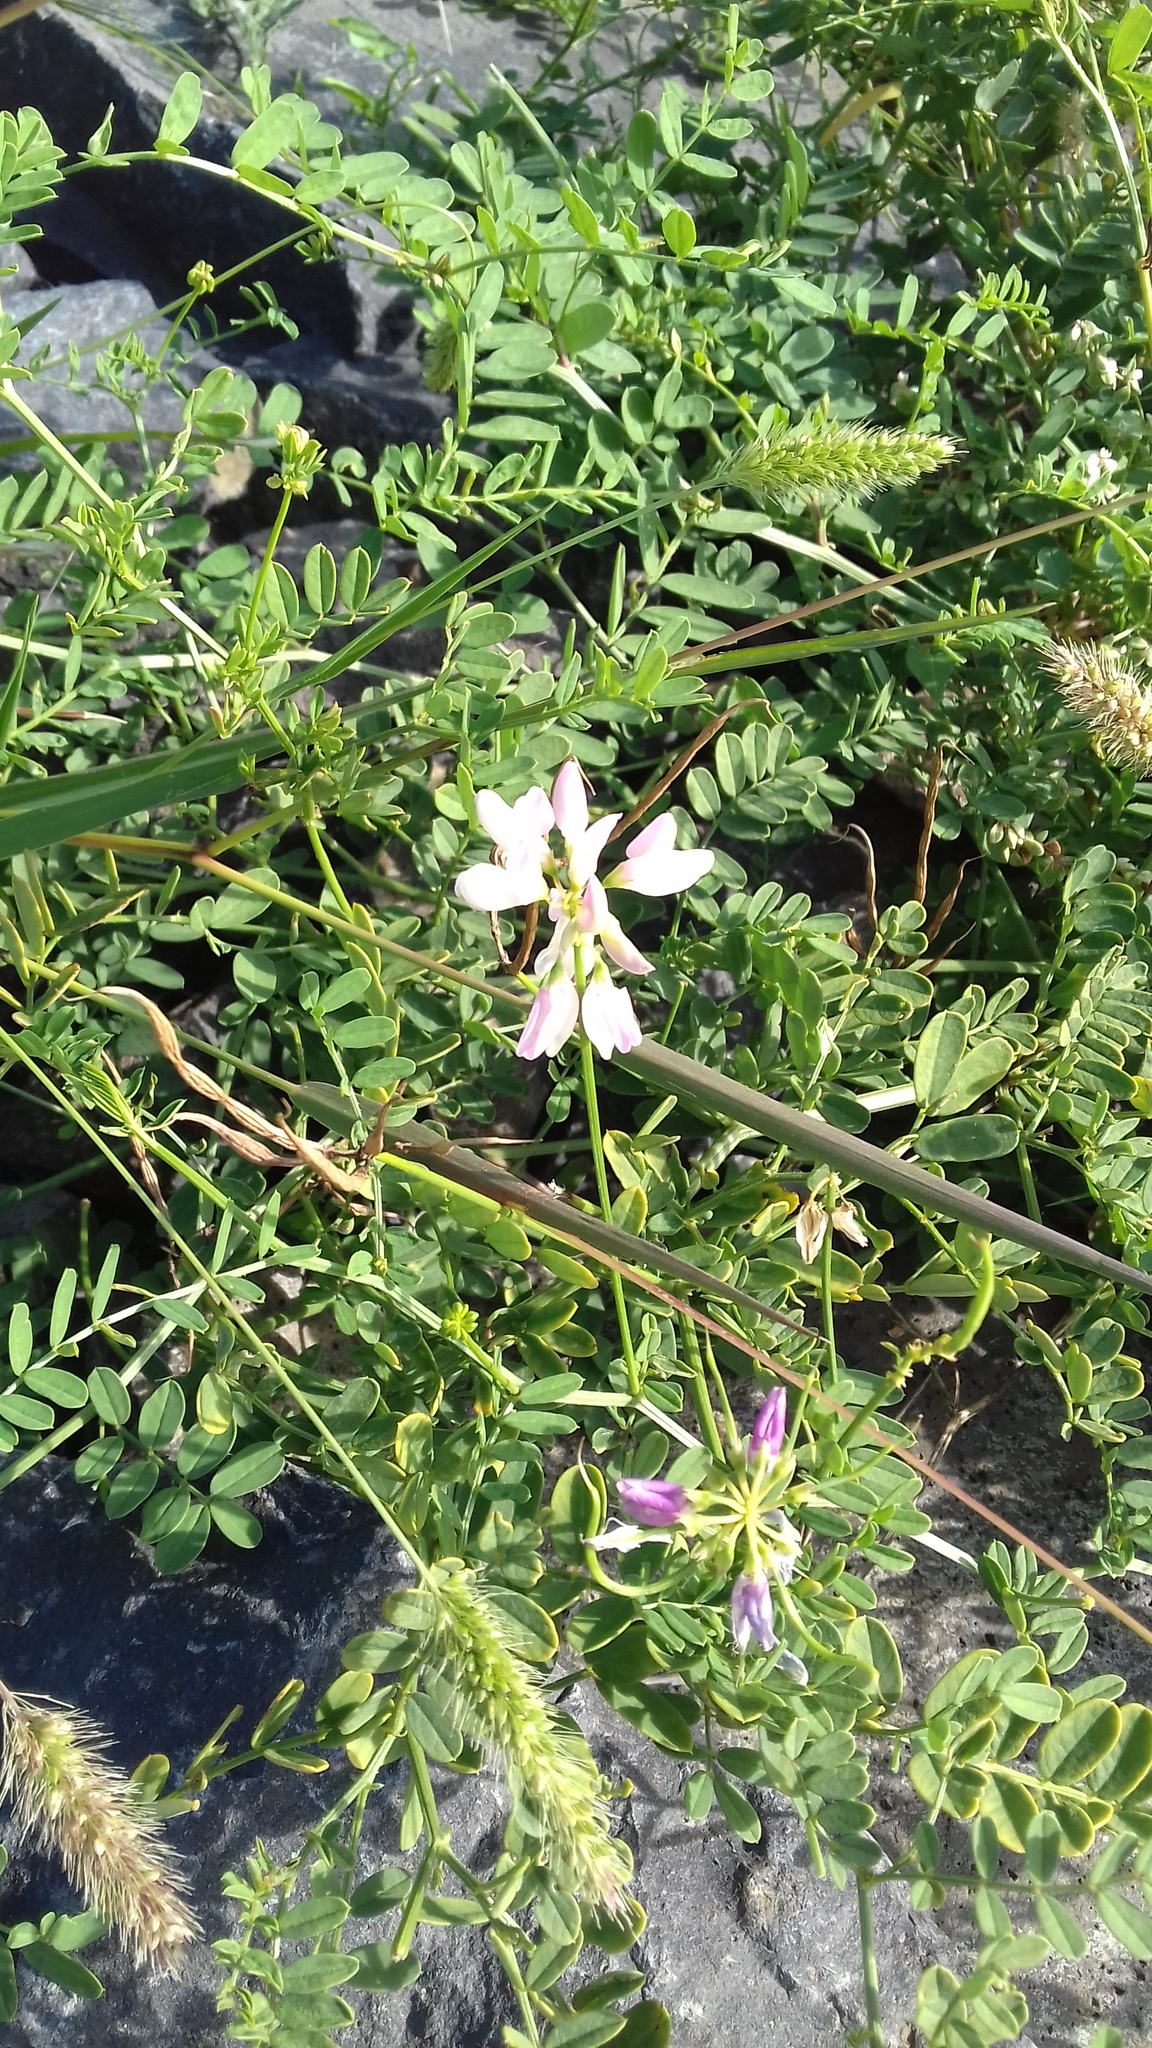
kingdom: Plantae
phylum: Tracheophyta
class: Magnoliopsida
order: Fabales
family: Fabaceae
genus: Coronilla
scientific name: Coronilla varia
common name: Crownvetch
